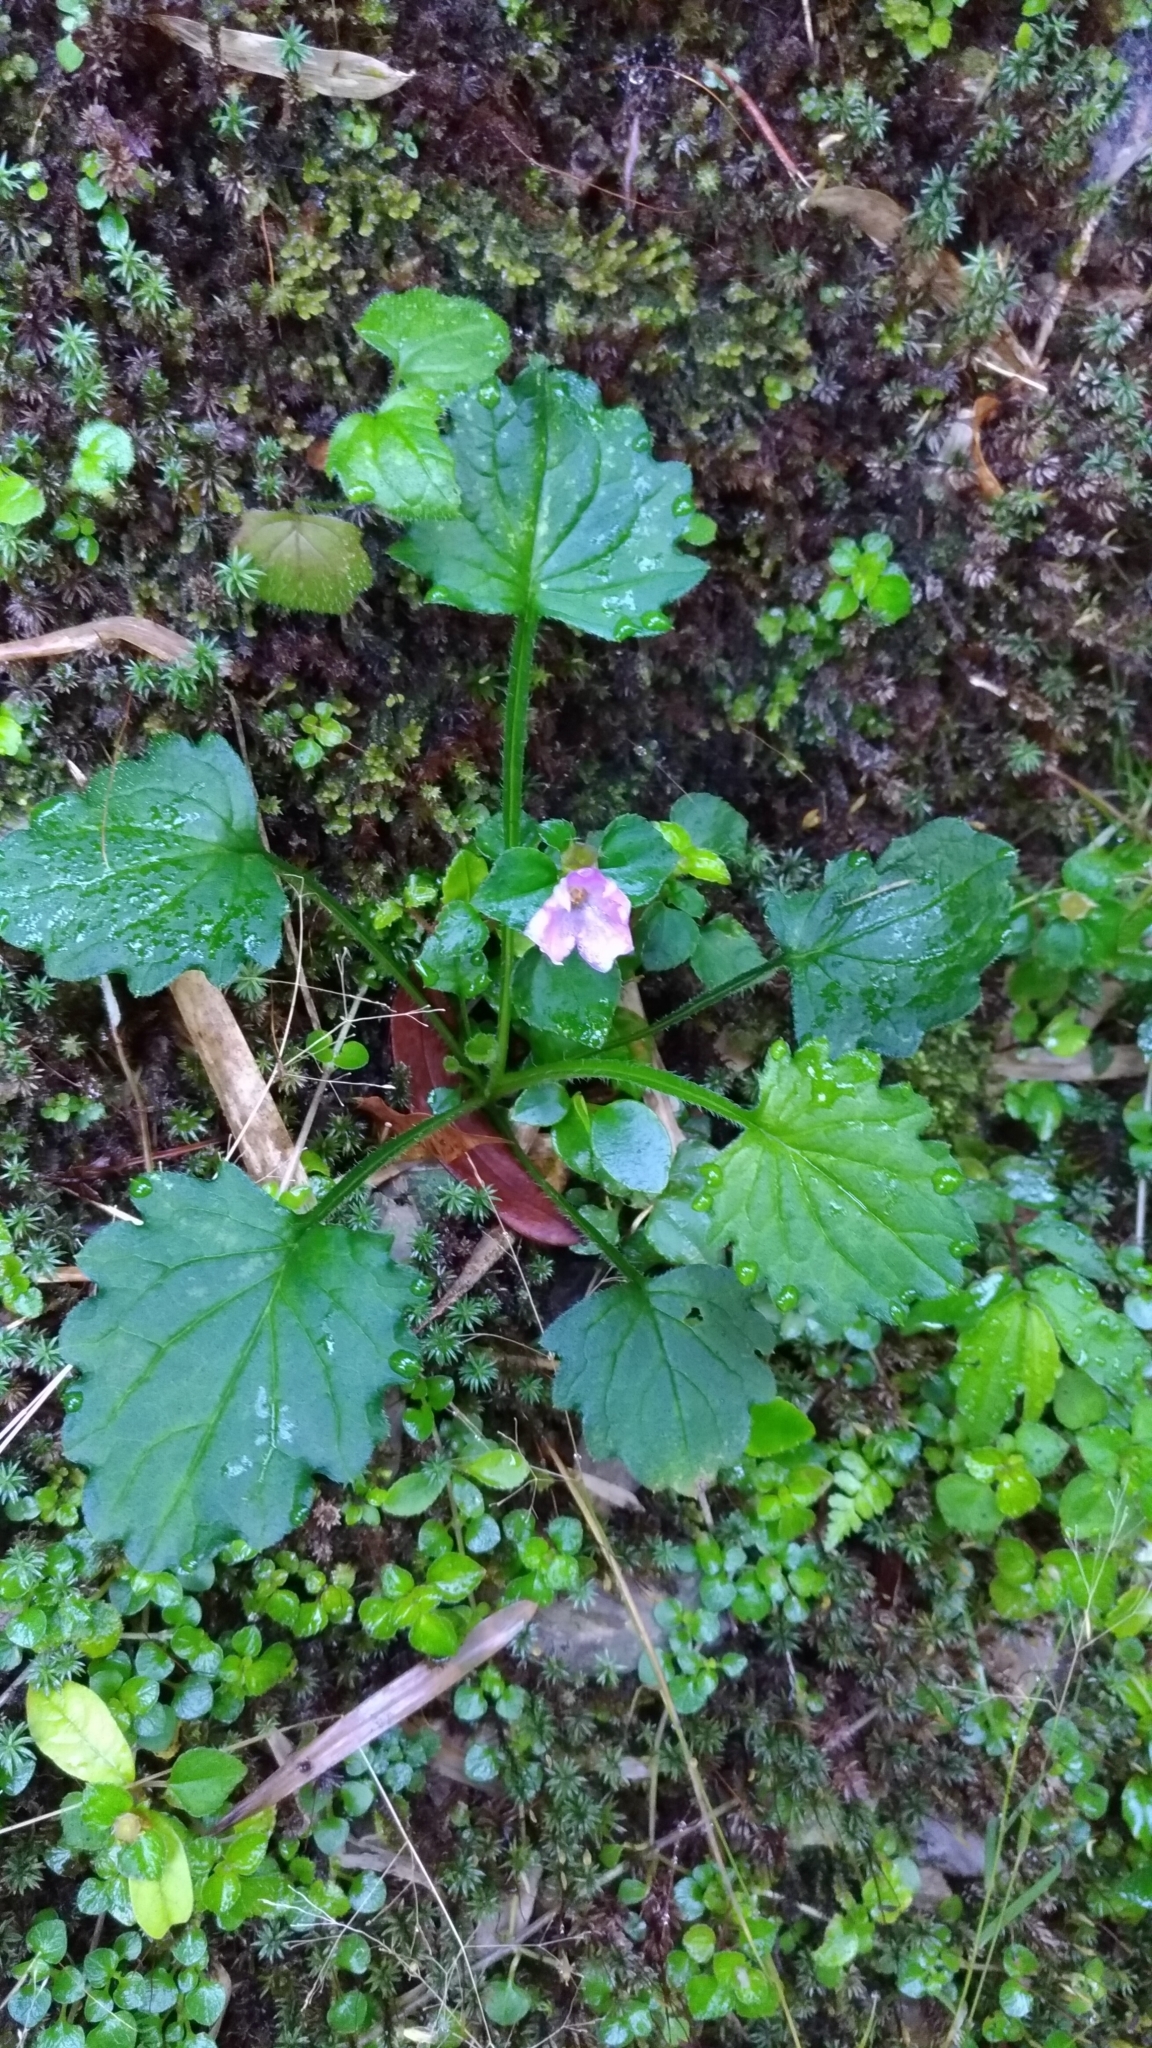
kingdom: Plantae
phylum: Tracheophyta
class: Magnoliopsida
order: Myrtales
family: Melastomataceae
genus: Sarcopyramis
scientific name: Sarcopyramis bodinieri
